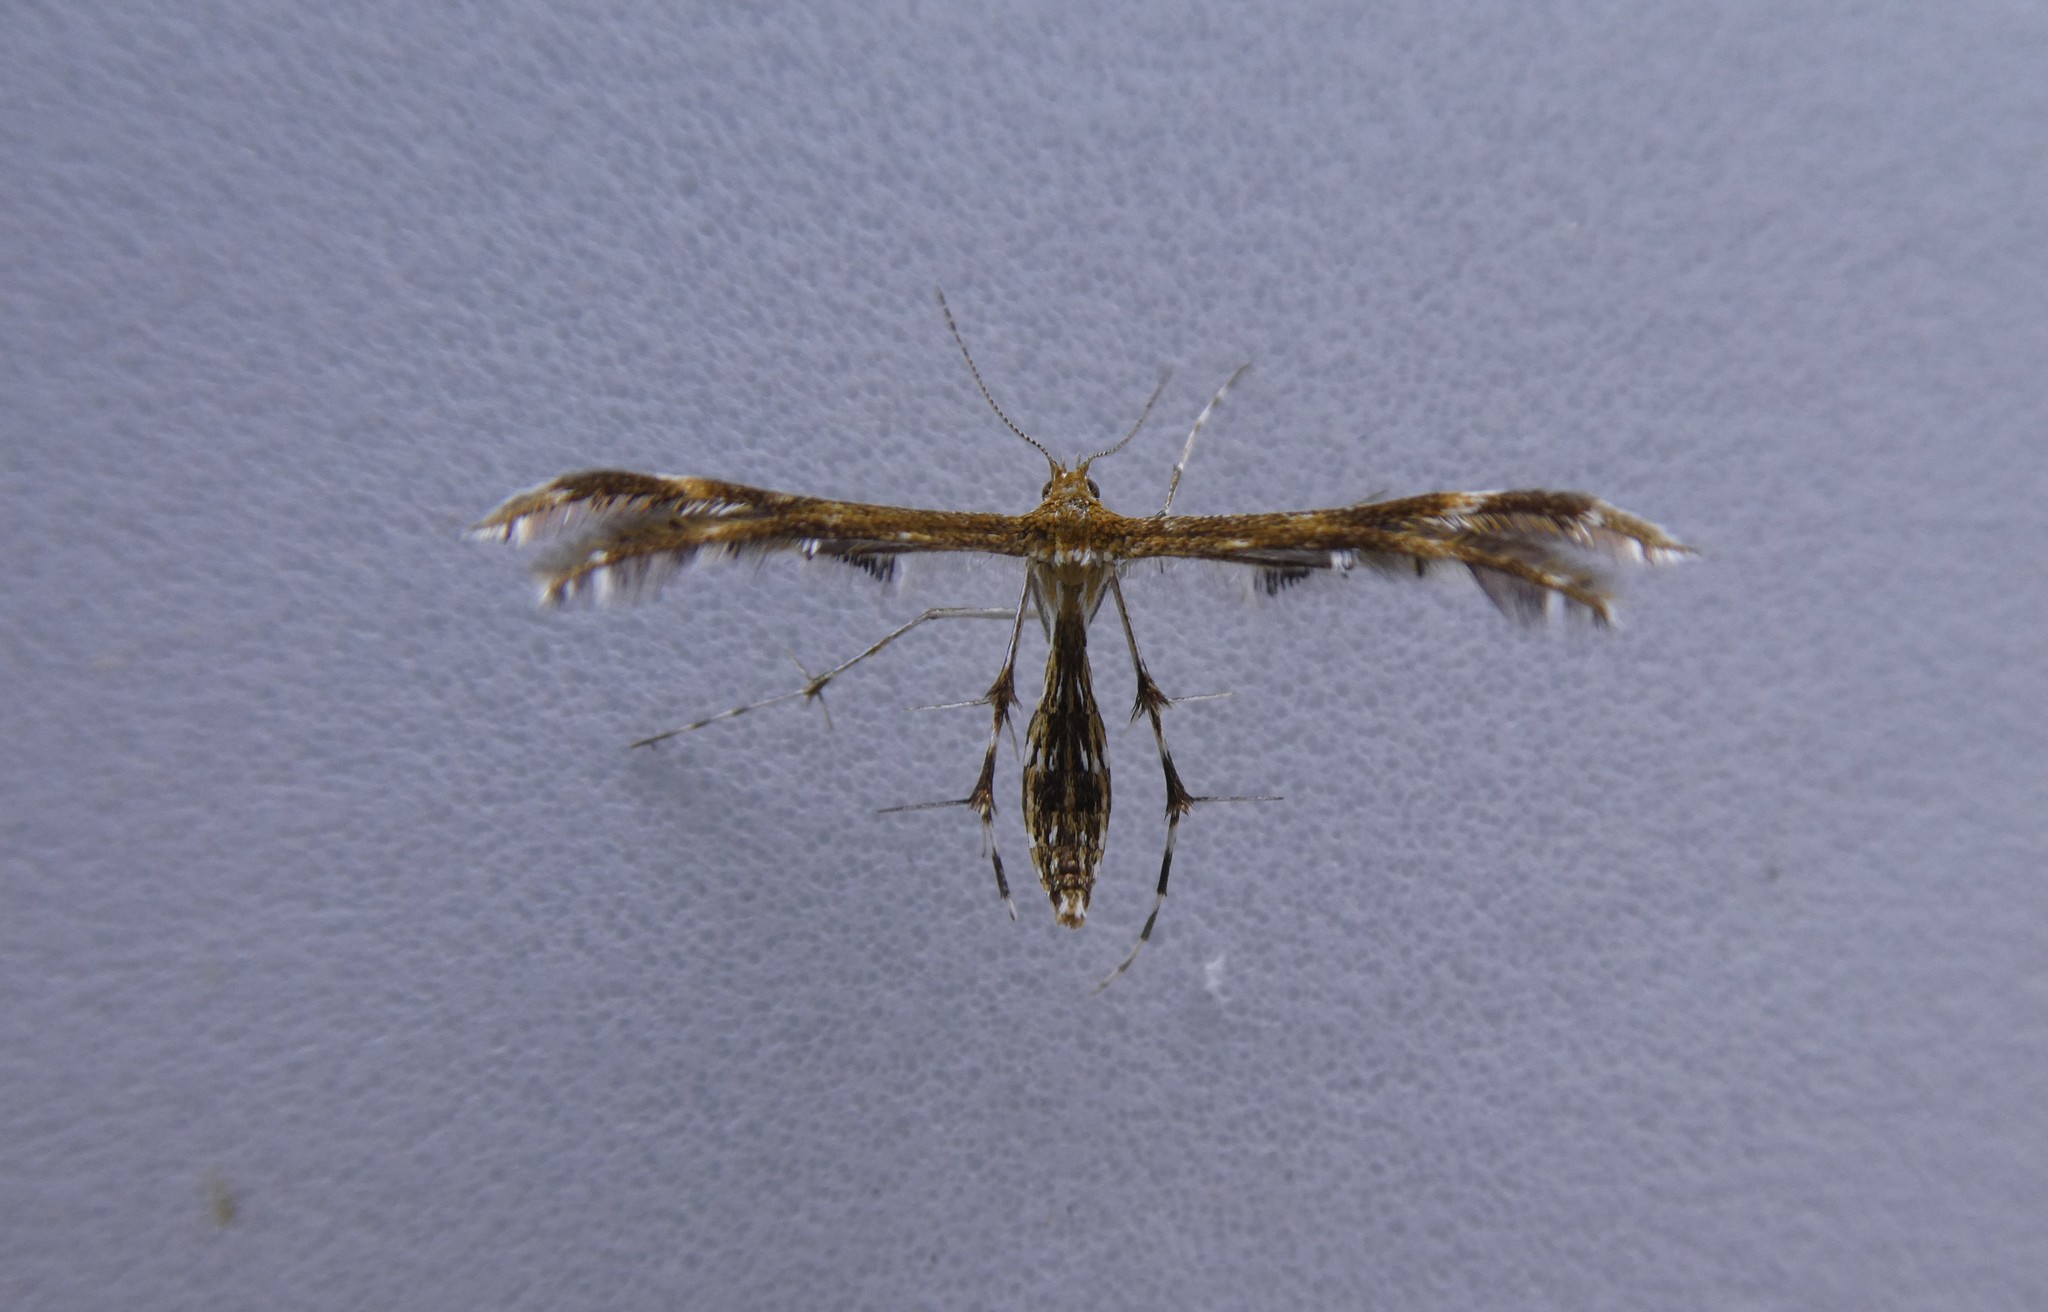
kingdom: Animalia
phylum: Arthropoda
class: Insecta
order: Lepidoptera
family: Pterophoridae
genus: Dejongia
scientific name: Dejongia lobidactylus
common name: Lobed plume moth
